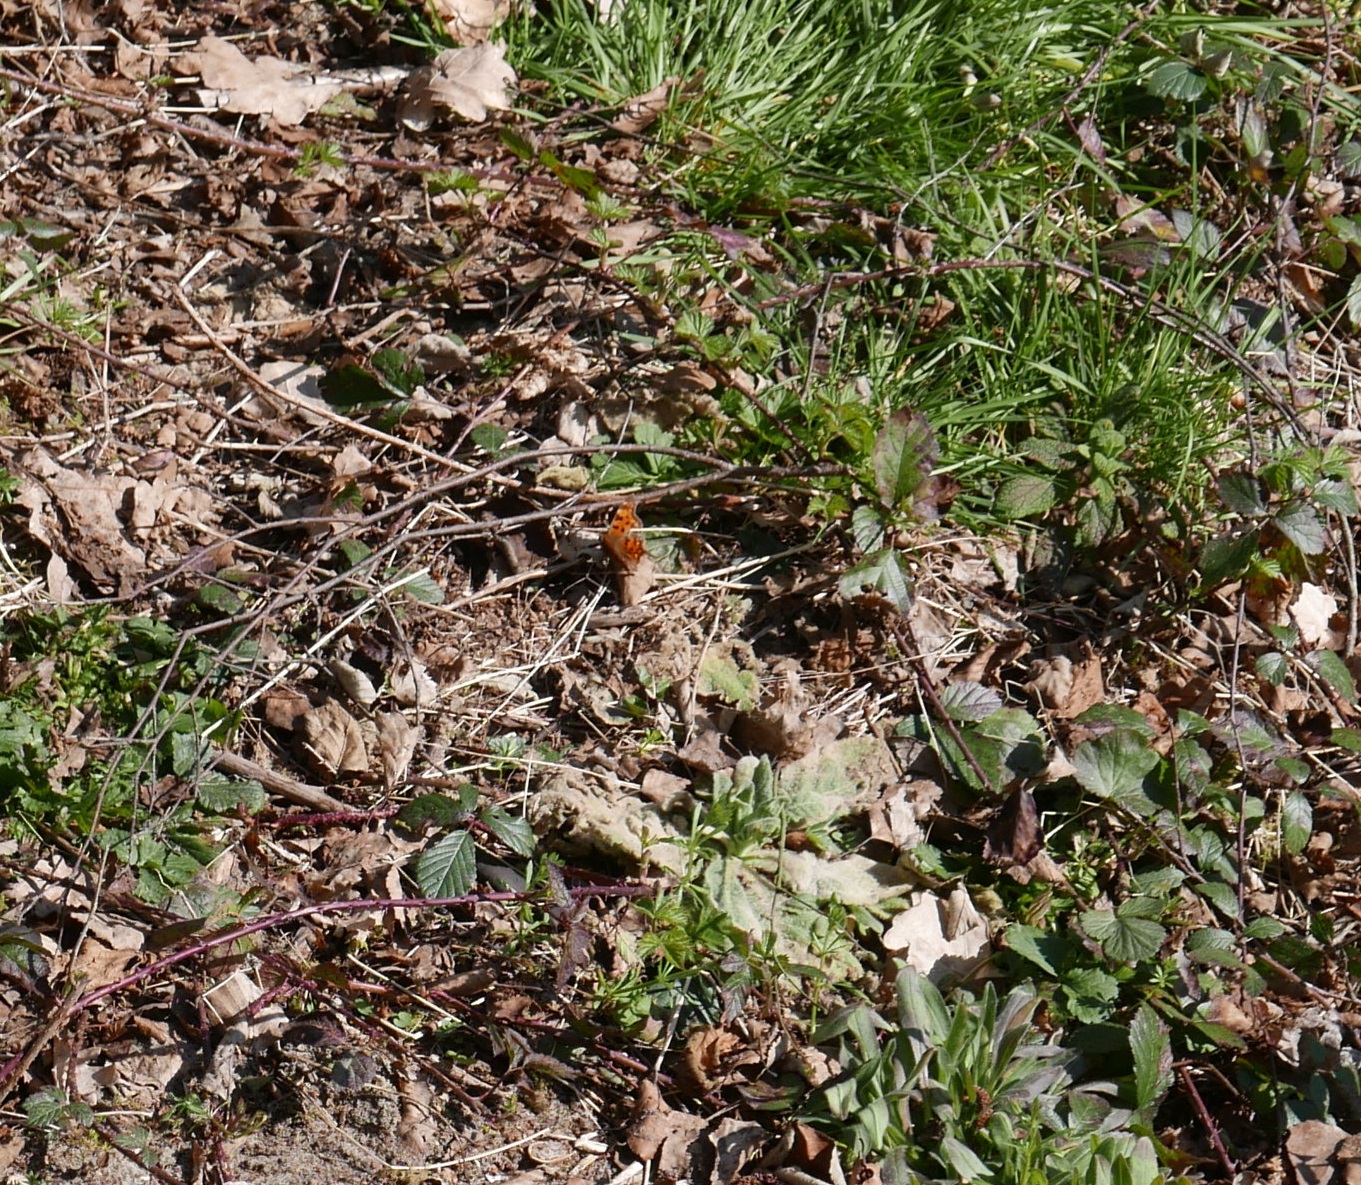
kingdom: Animalia
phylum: Arthropoda
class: Insecta
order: Lepidoptera
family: Nymphalidae
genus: Polygonia
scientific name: Polygonia c-album
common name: Comma
